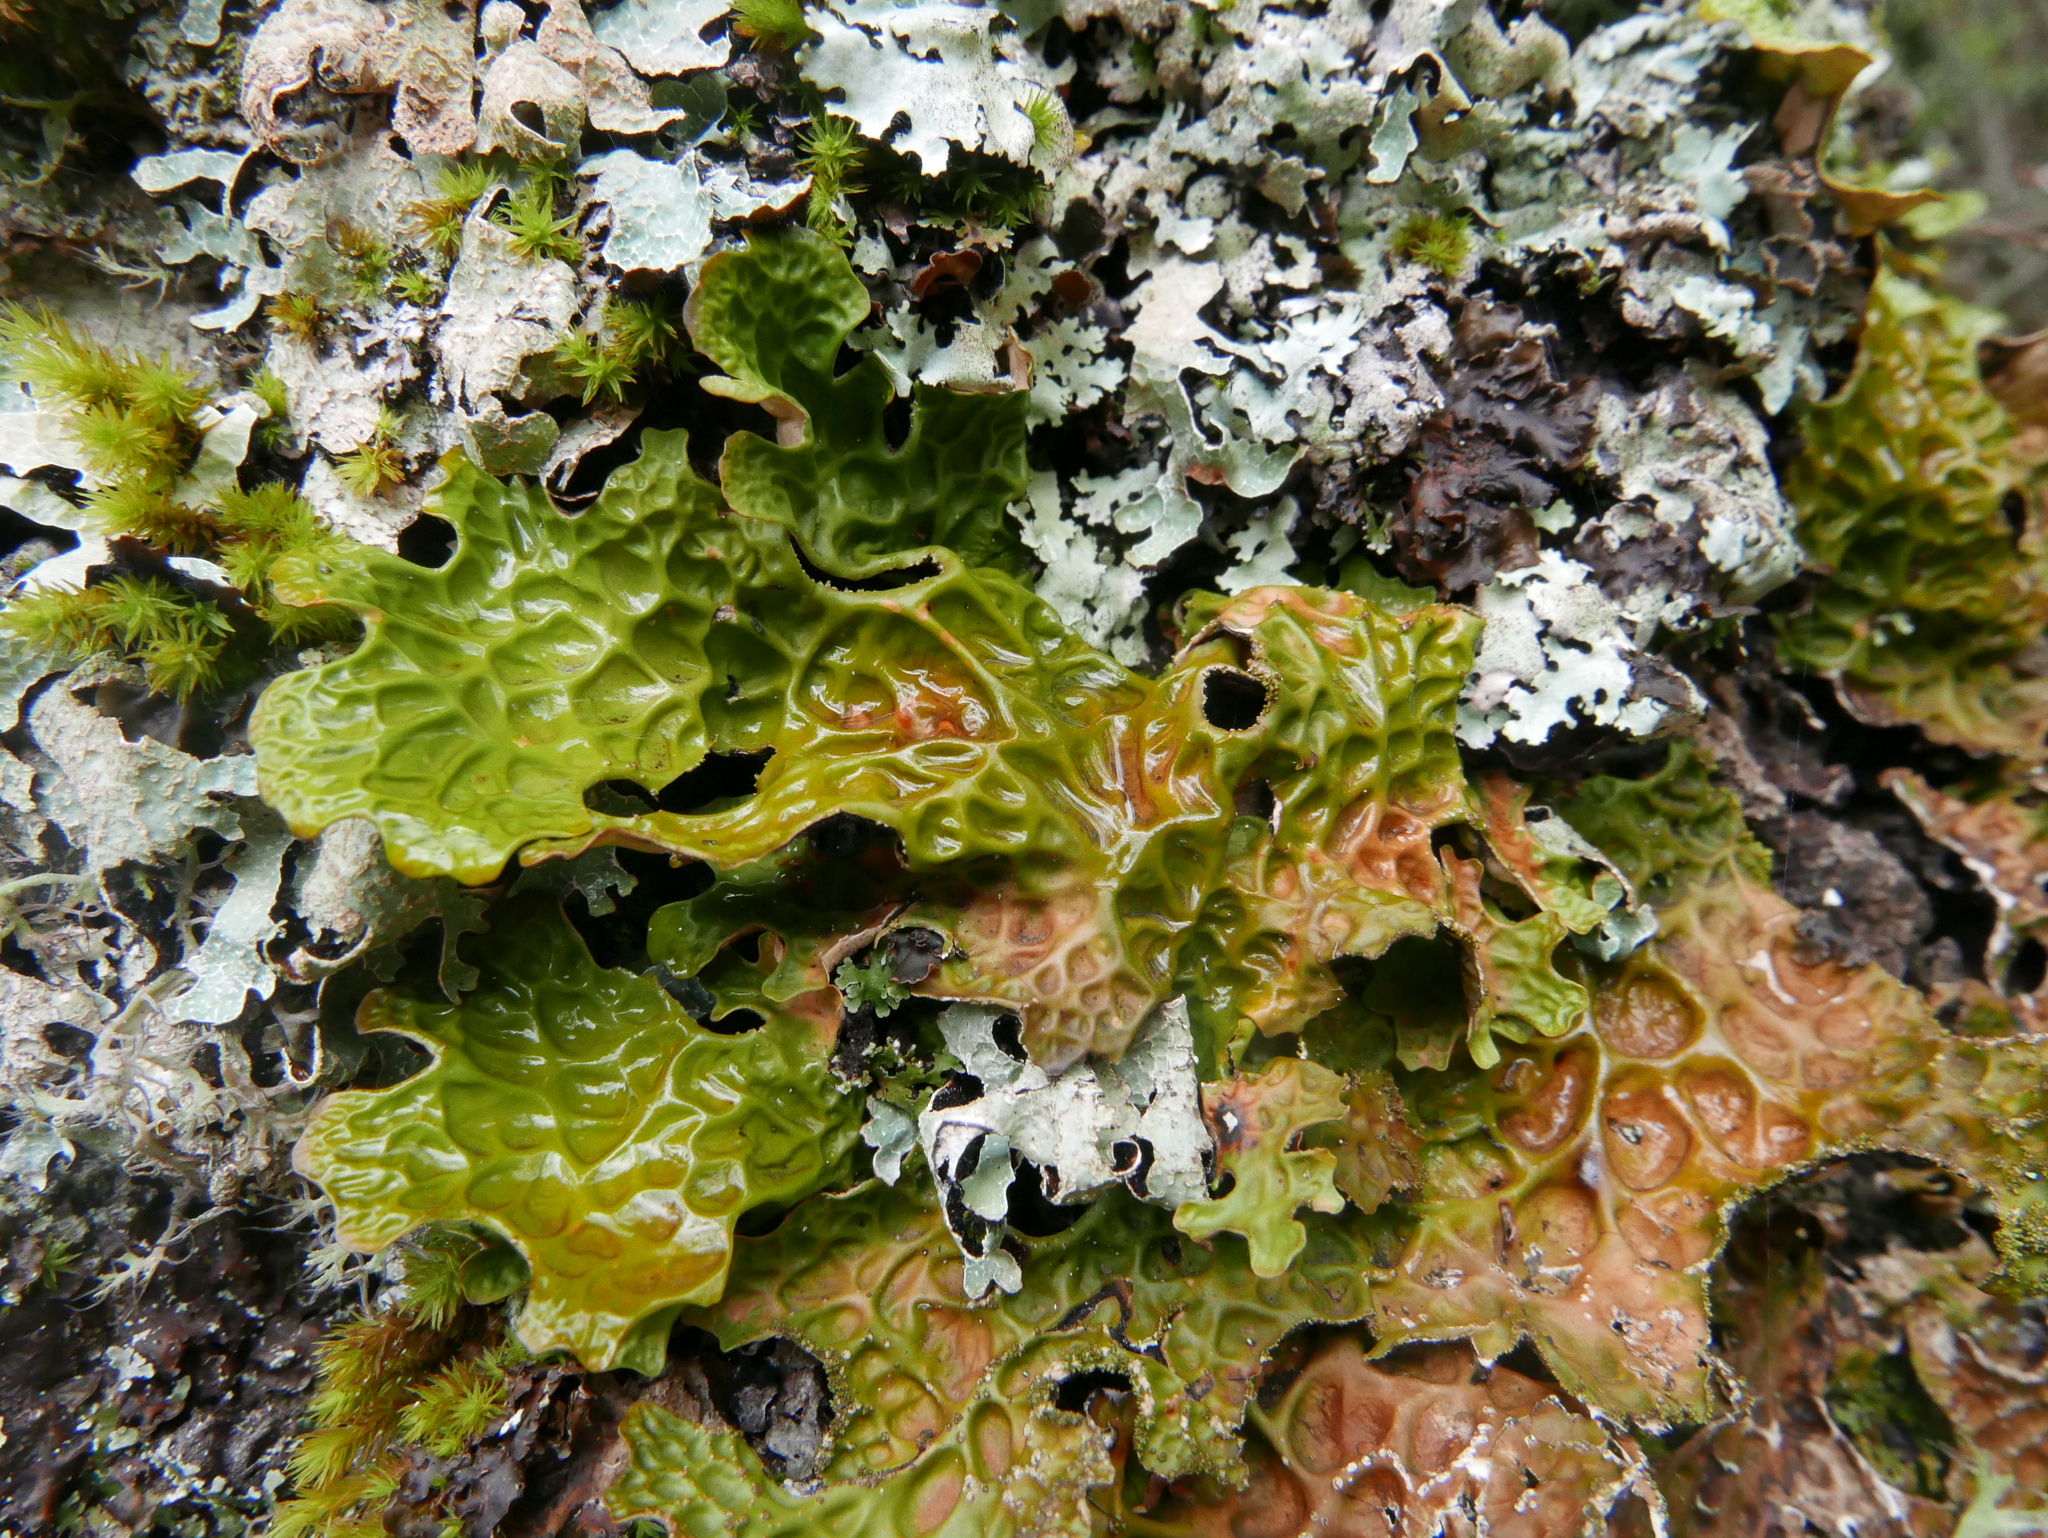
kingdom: Fungi
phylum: Ascomycota
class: Lecanoromycetes
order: Peltigerales
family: Lobariaceae
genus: Lobaria
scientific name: Lobaria pulmonaria
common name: Lungwort
